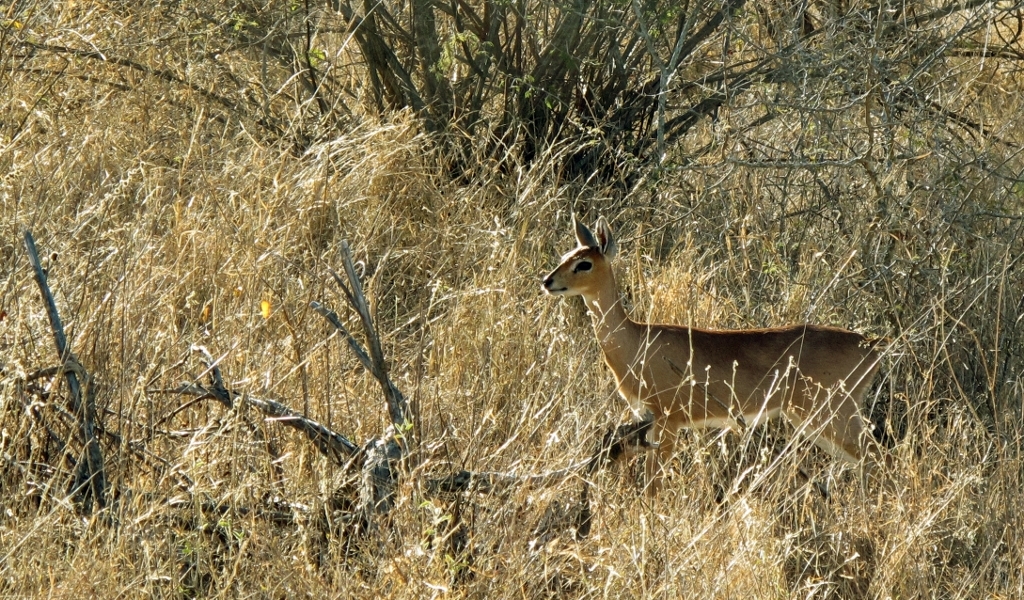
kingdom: Animalia
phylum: Chordata
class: Mammalia
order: Artiodactyla
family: Bovidae
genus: Raphicerus
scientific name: Raphicerus campestris
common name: Steenbok
